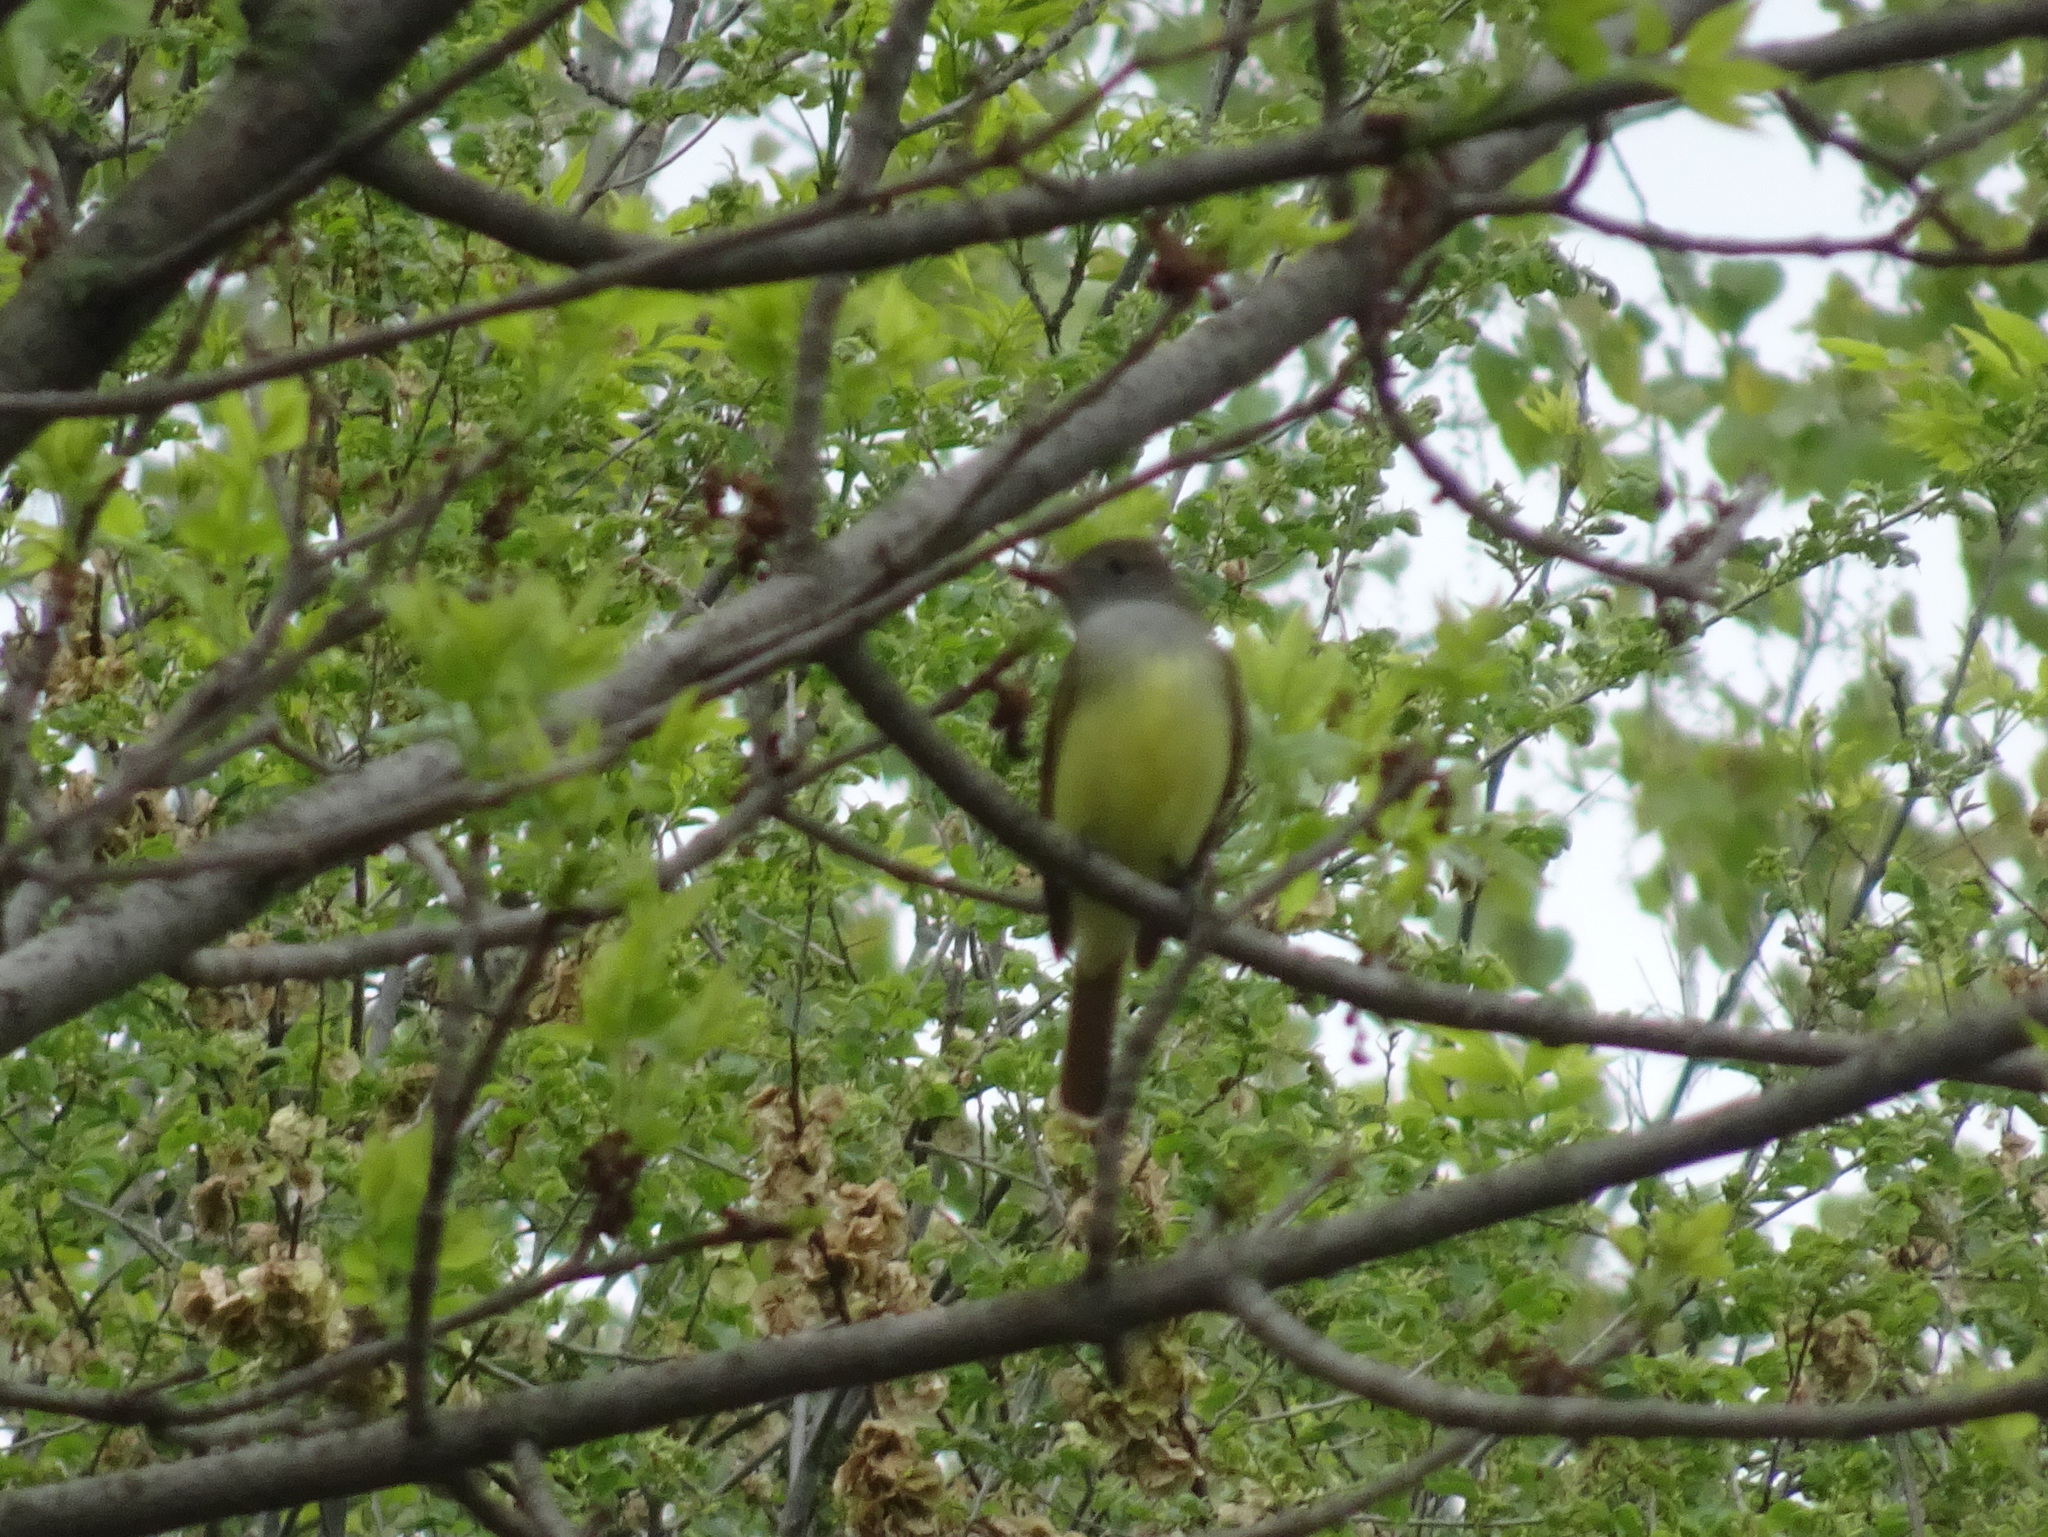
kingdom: Animalia
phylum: Chordata
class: Aves
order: Passeriformes
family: Tyrannidae
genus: Myiarchus
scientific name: Myiarchus crinitus
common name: Great crested flycatcher
